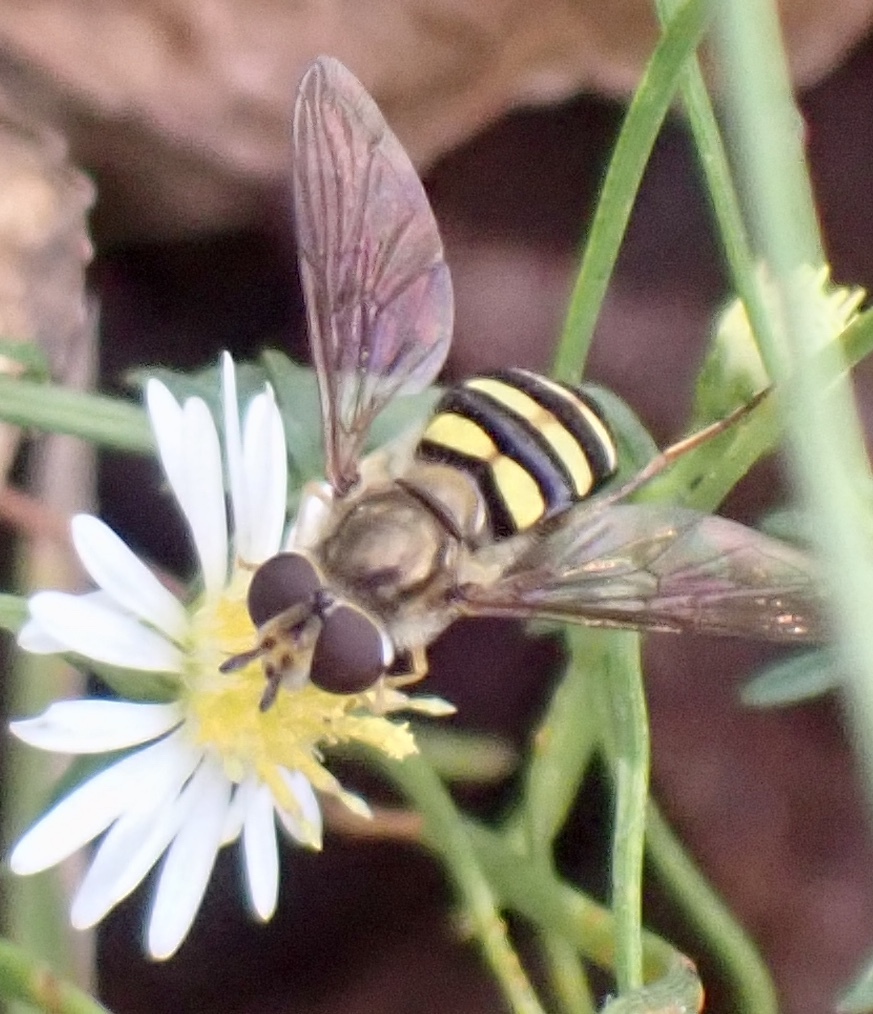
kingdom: Animalia
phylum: Arthropoda
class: Insecta
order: Diptera
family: Syrphidae
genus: Eupeodes
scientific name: Eupeodes
